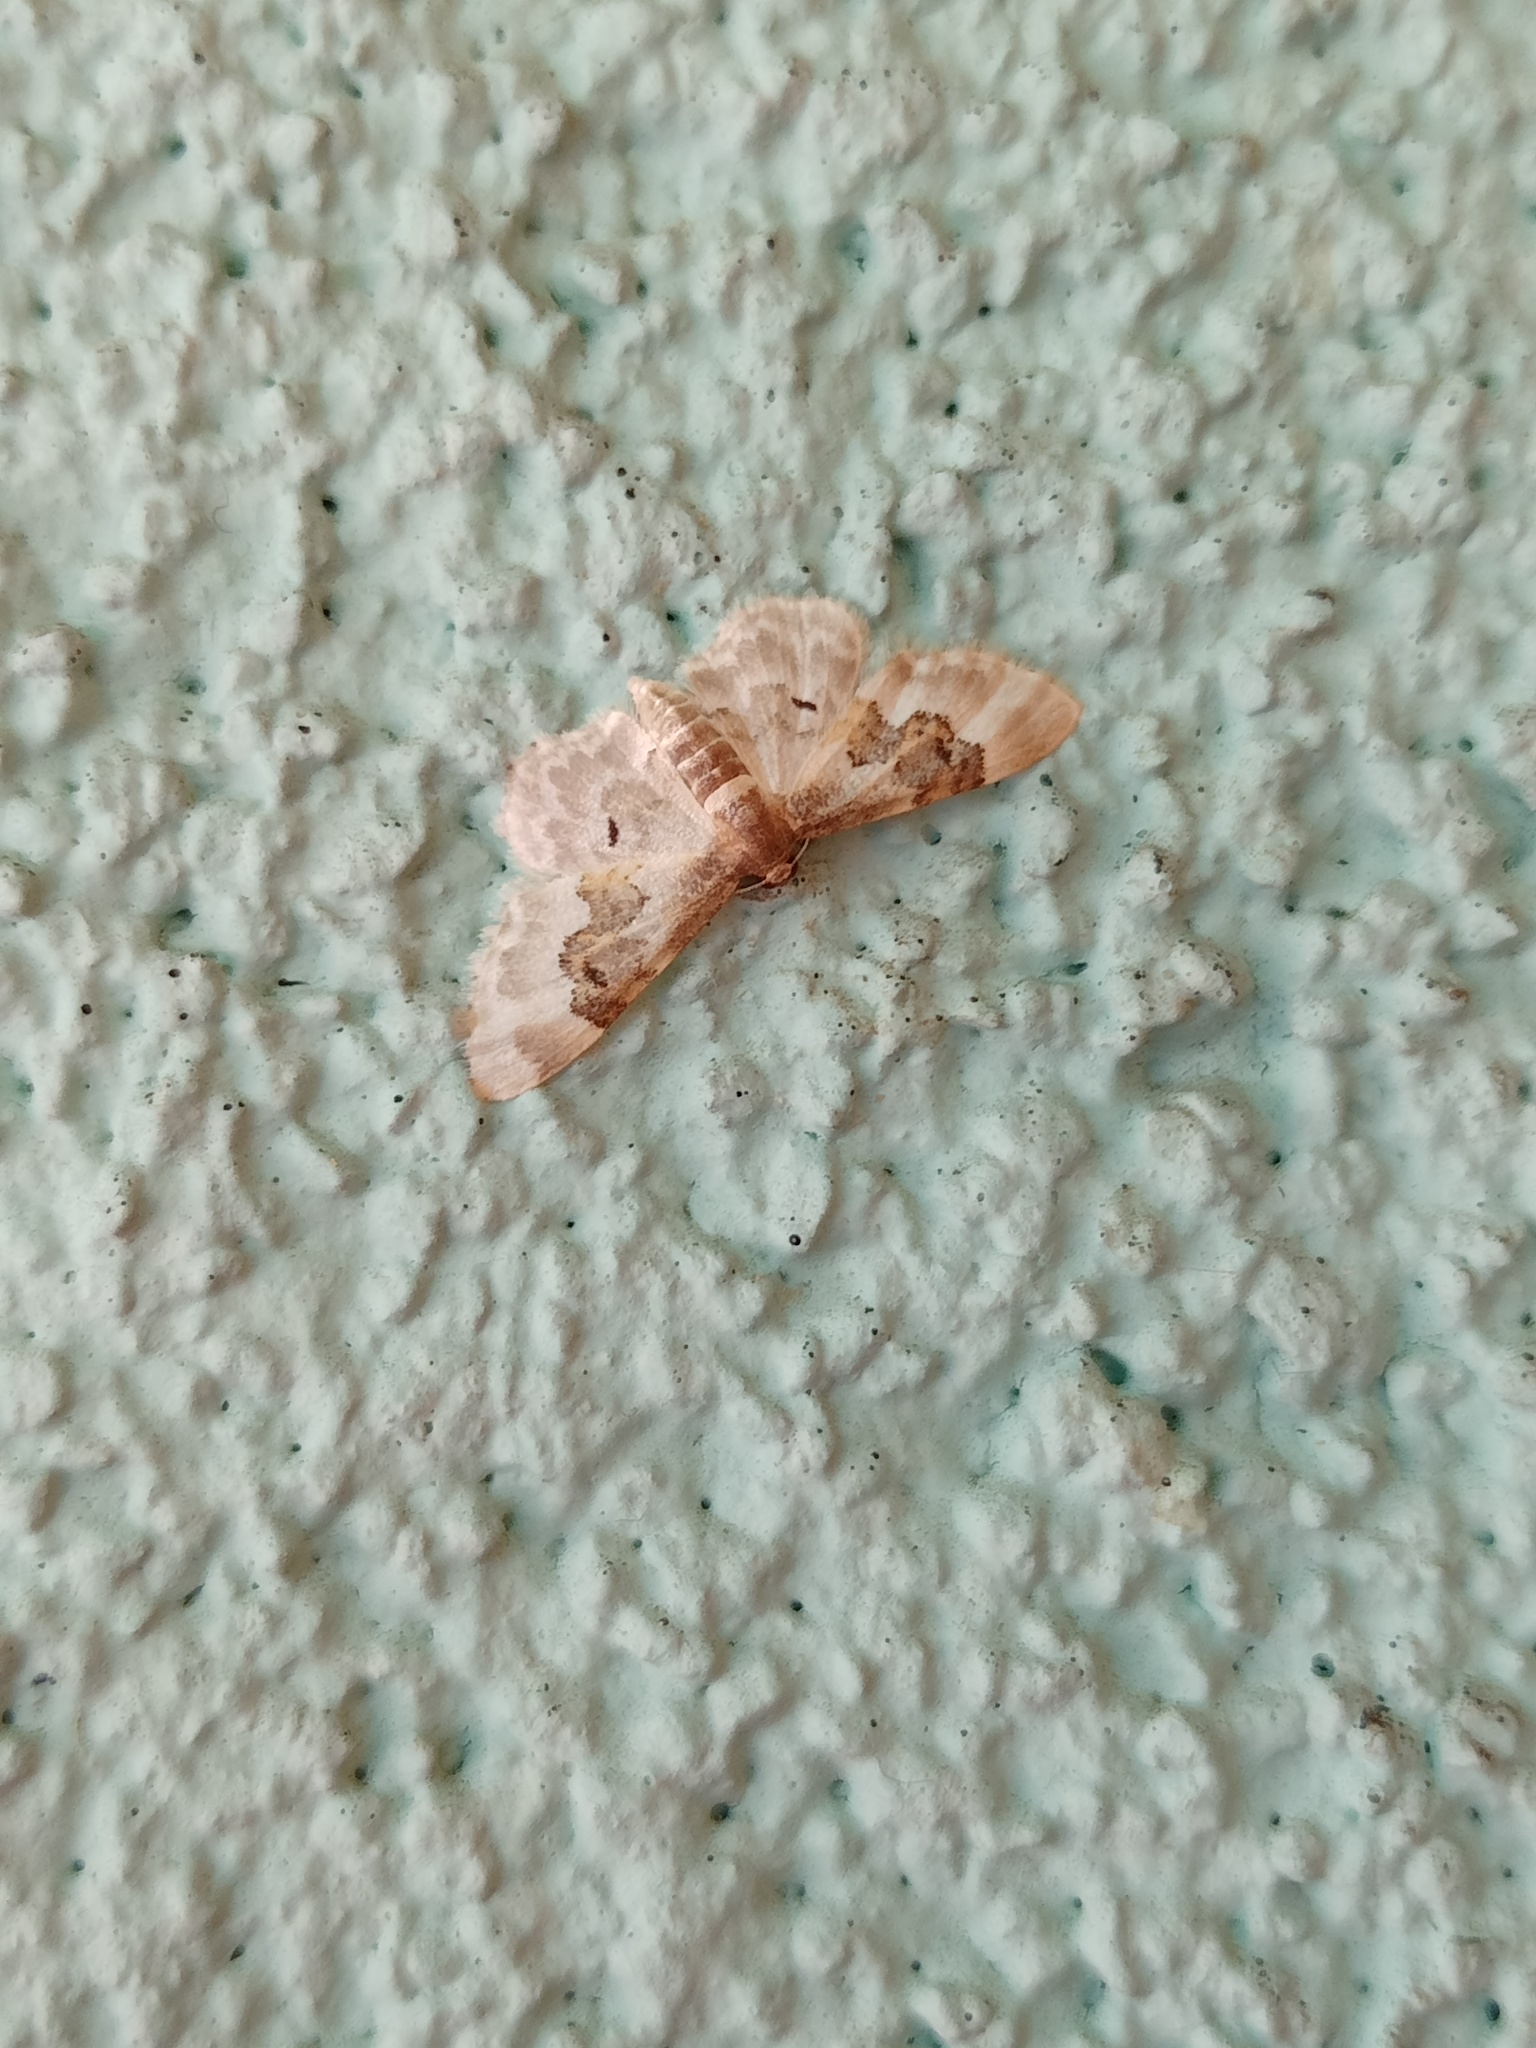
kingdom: Animalia
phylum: Arthropoda
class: Insecta
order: Lepidoptera
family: Geometridae
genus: Idaea
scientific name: Idaea rusticata
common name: Least carpet
